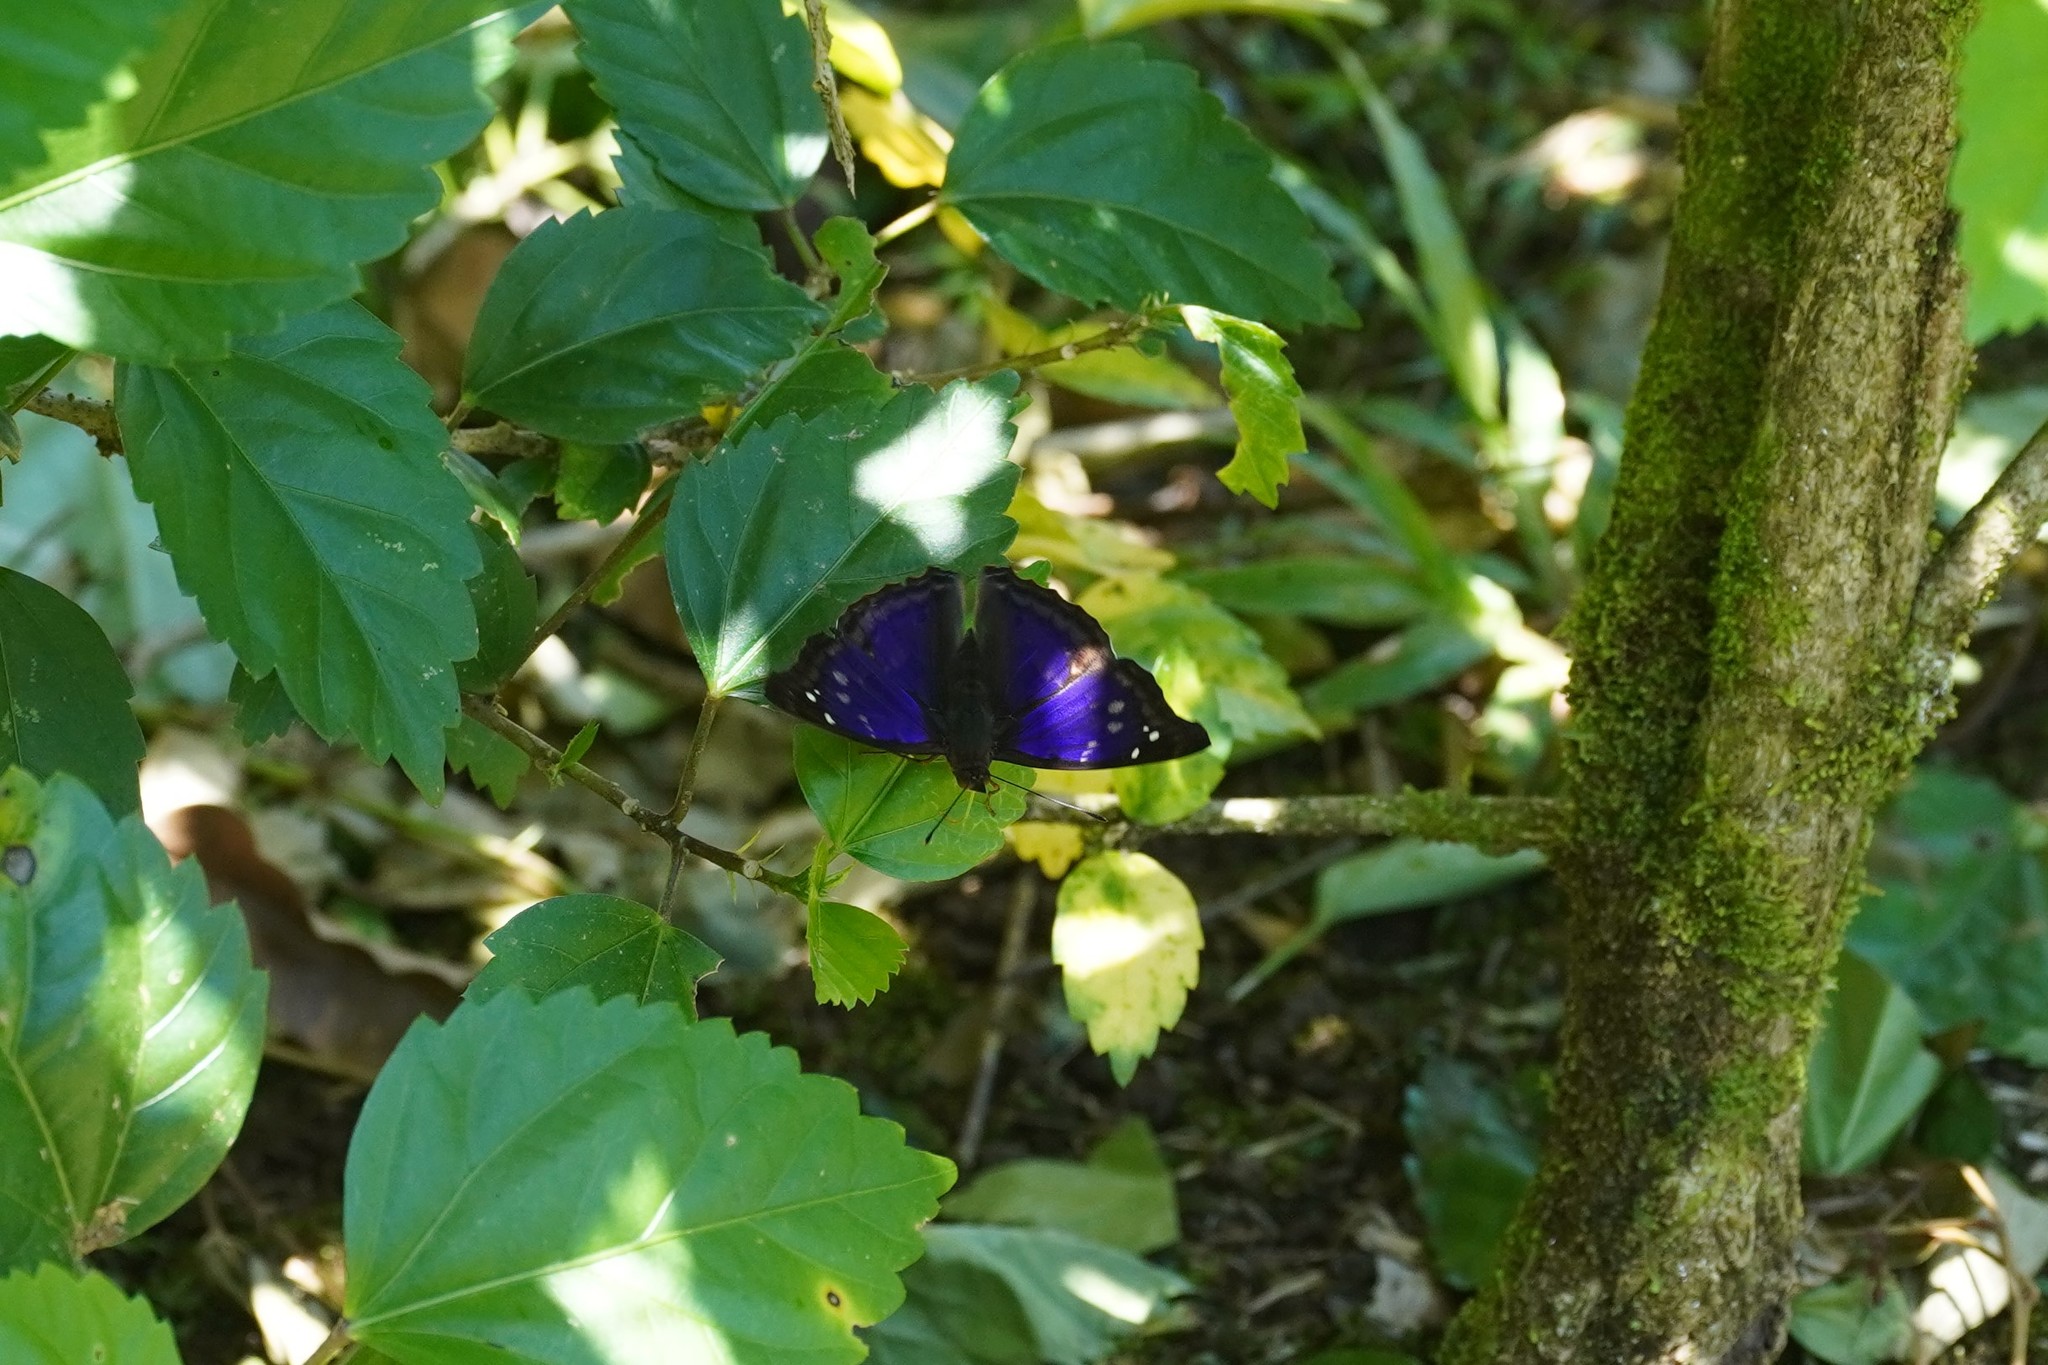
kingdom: Animalia
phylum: Arthropoda
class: Insecta
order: Lepidoptera
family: Nymphalidae
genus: Doxocopa
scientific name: Doxocopa agathina
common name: Agathina emperor
